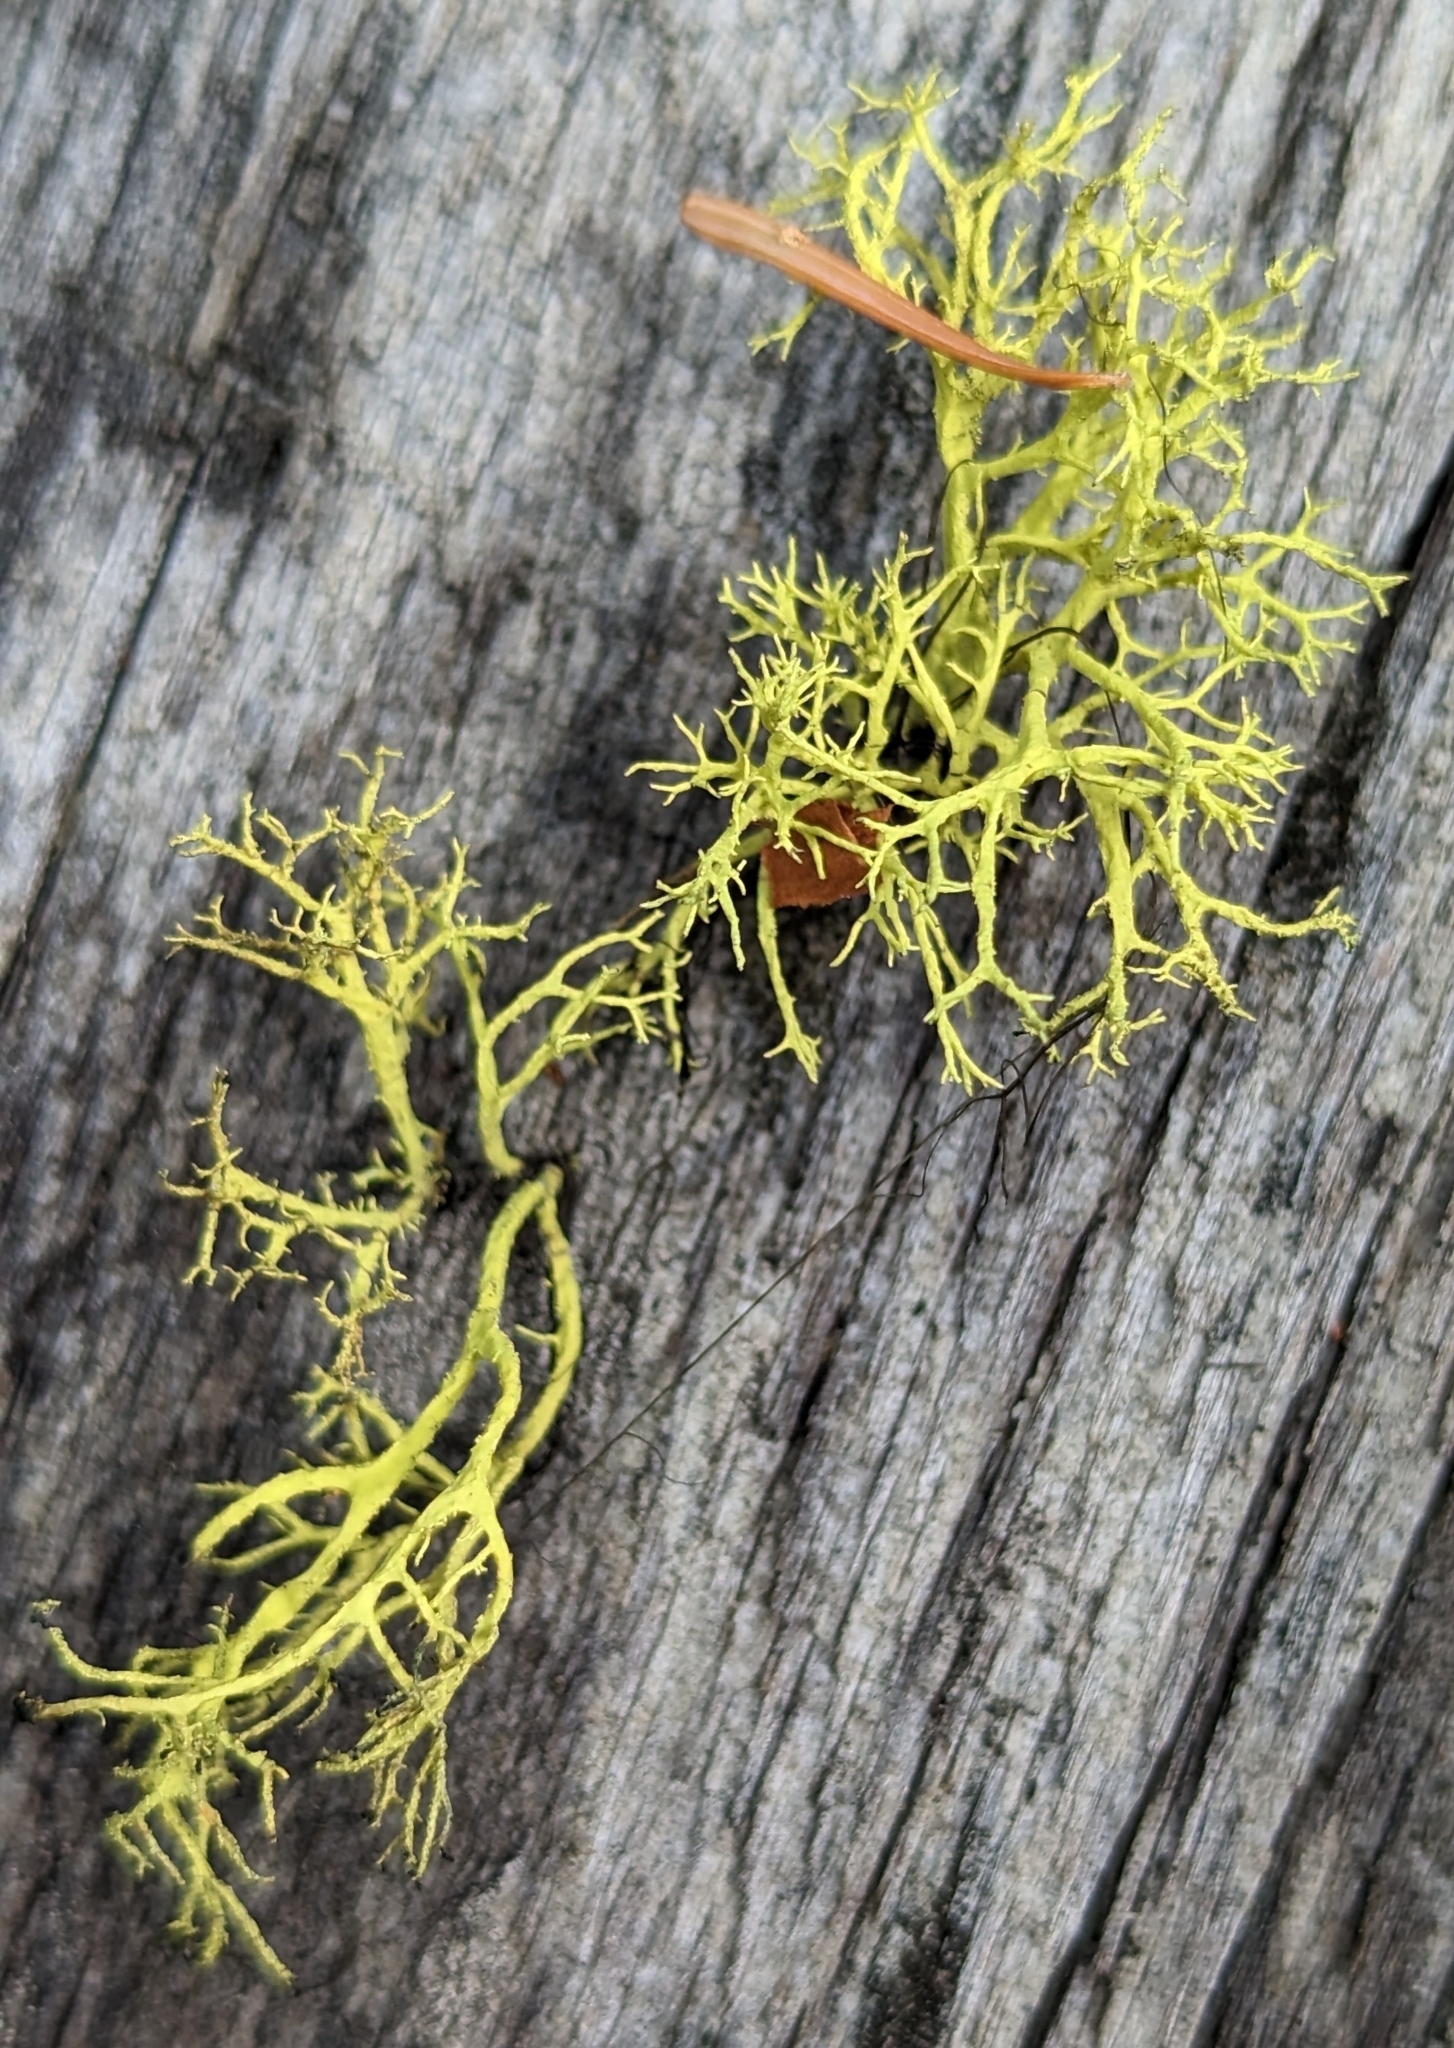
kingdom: Fungi
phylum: Ascomycota
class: Lecanoromycetes
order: Lecanorales
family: Parmeliaceae
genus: Letharia
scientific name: Letharia vulpina
